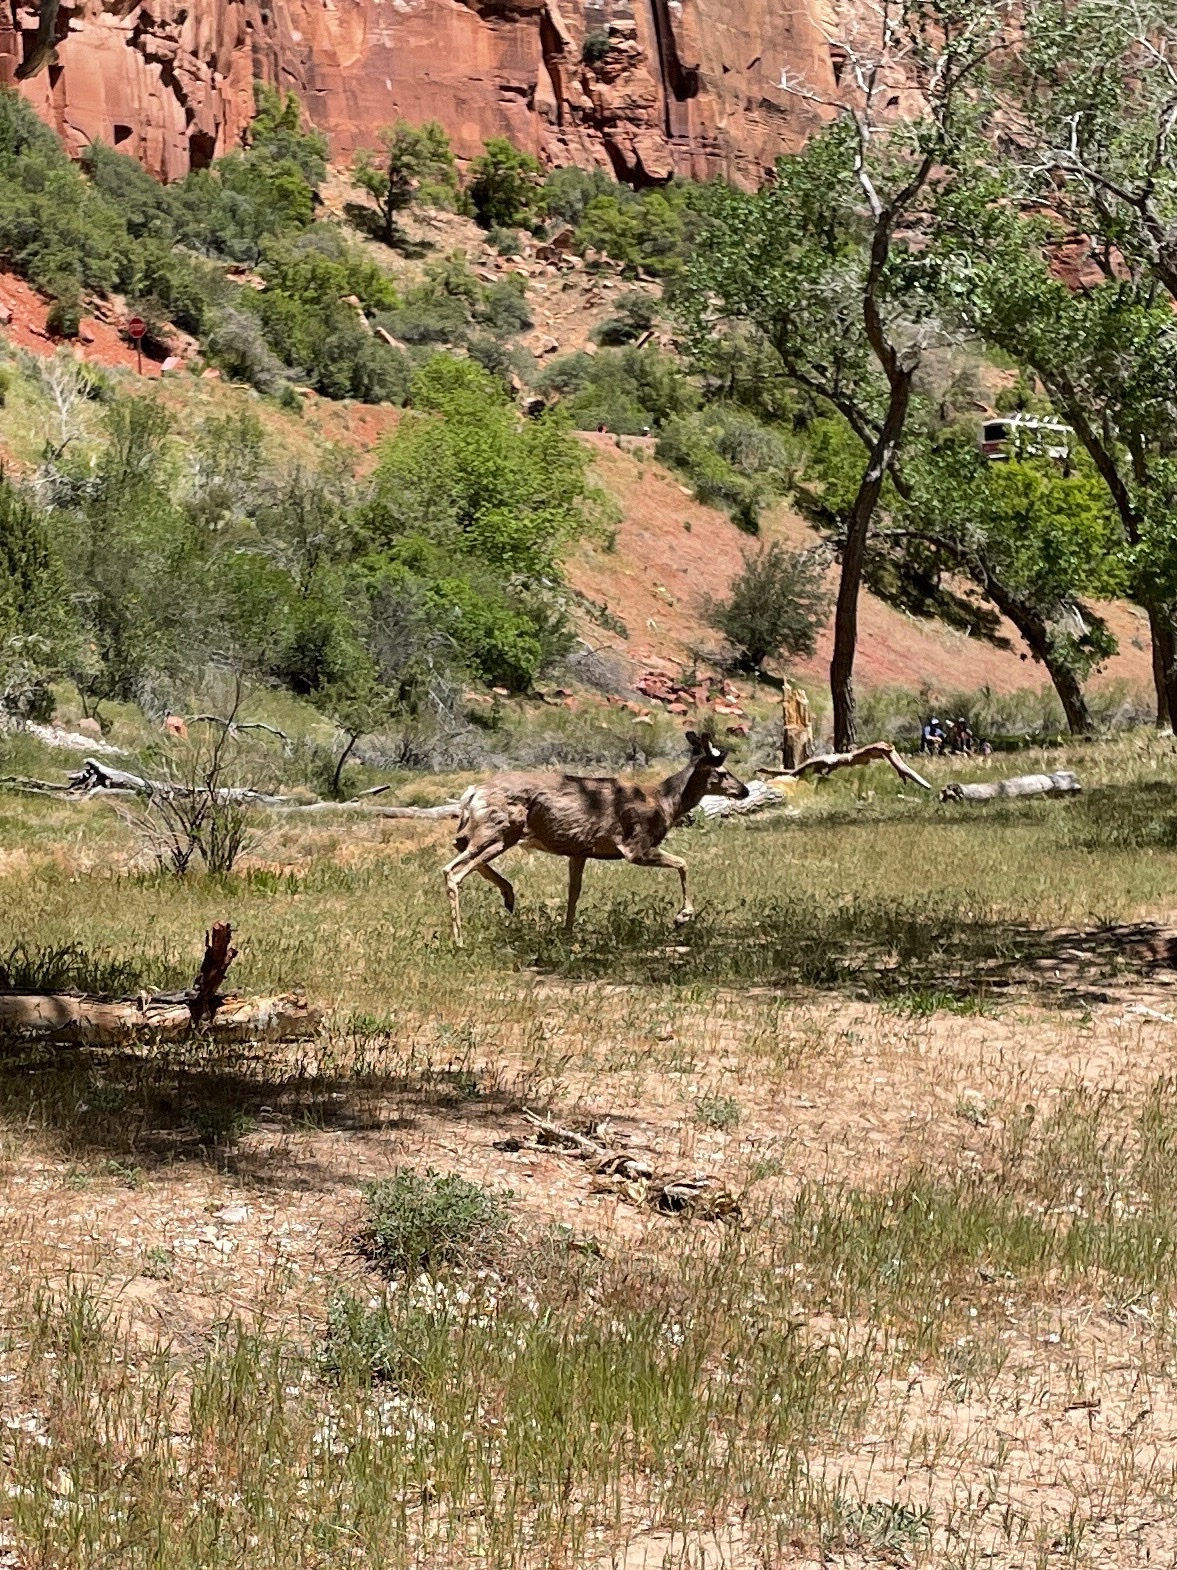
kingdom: Animalia
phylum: Chordata
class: Mammalia
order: Artiodactyla
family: Cervidae
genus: Odocoileus
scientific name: Odocoileus hemionus
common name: Mule deer
